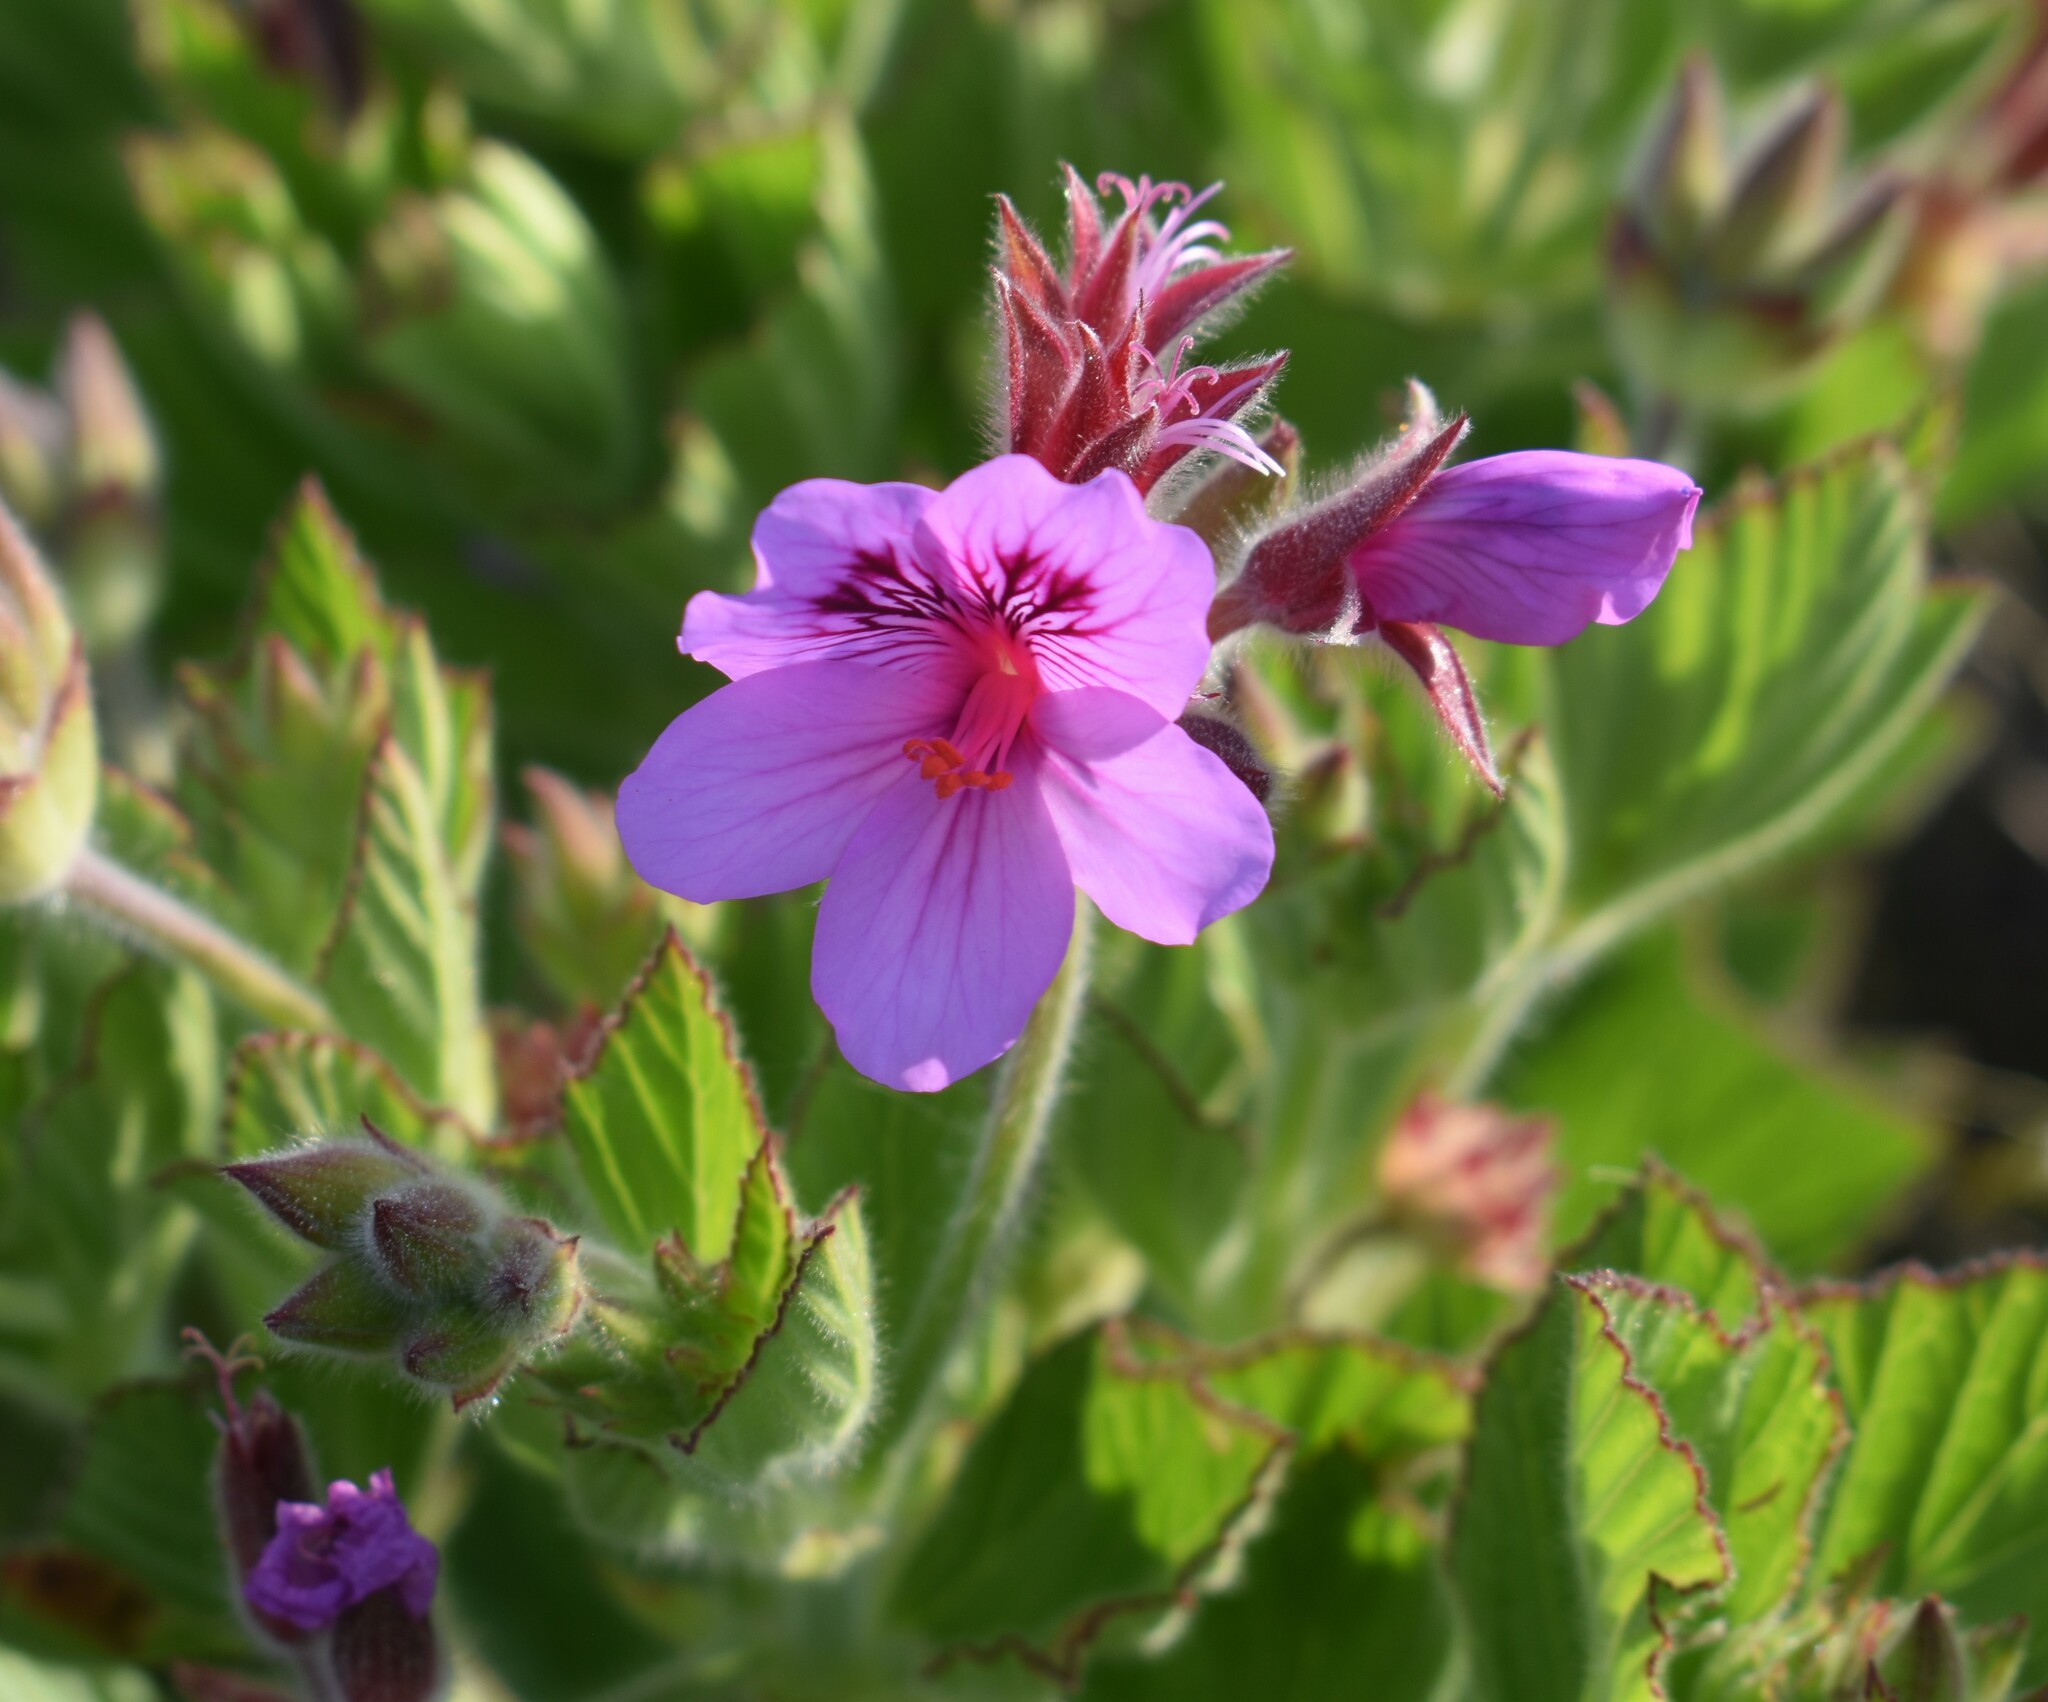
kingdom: Plantae
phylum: Tracheophyta
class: Magnoliopsida
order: Geraniales
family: Geraniaceae
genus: Pelargonium
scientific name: Pelargonium cucullatum
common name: Tree pelargonium
